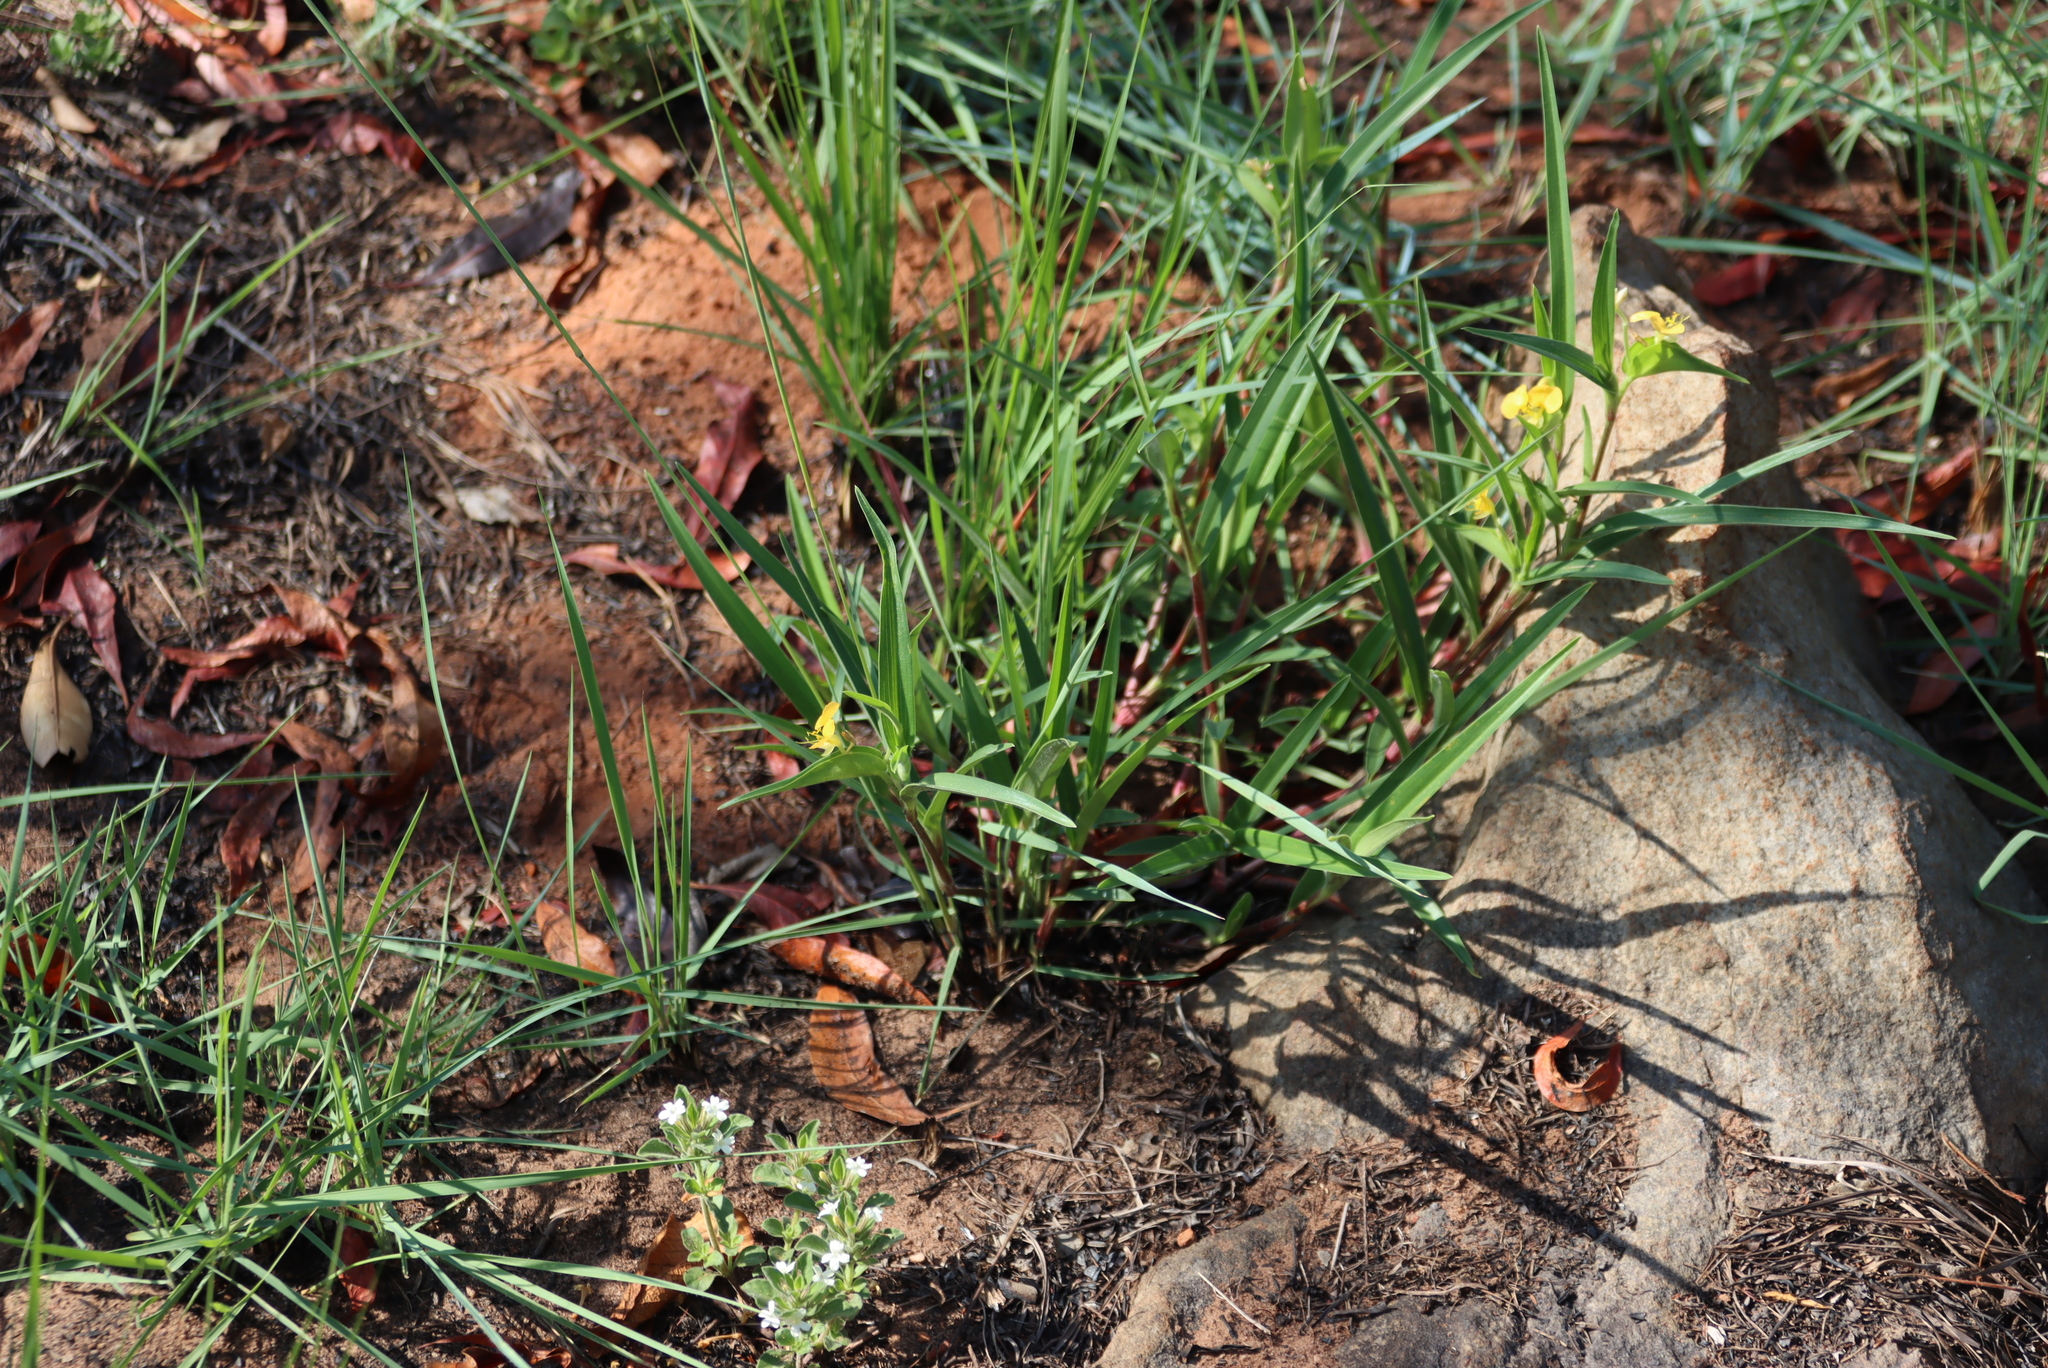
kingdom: Plantae
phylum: Tracheophyta
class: Liliopsida
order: Commelinales
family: Commelinaceae
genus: Commelina
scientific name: Commelina africana
